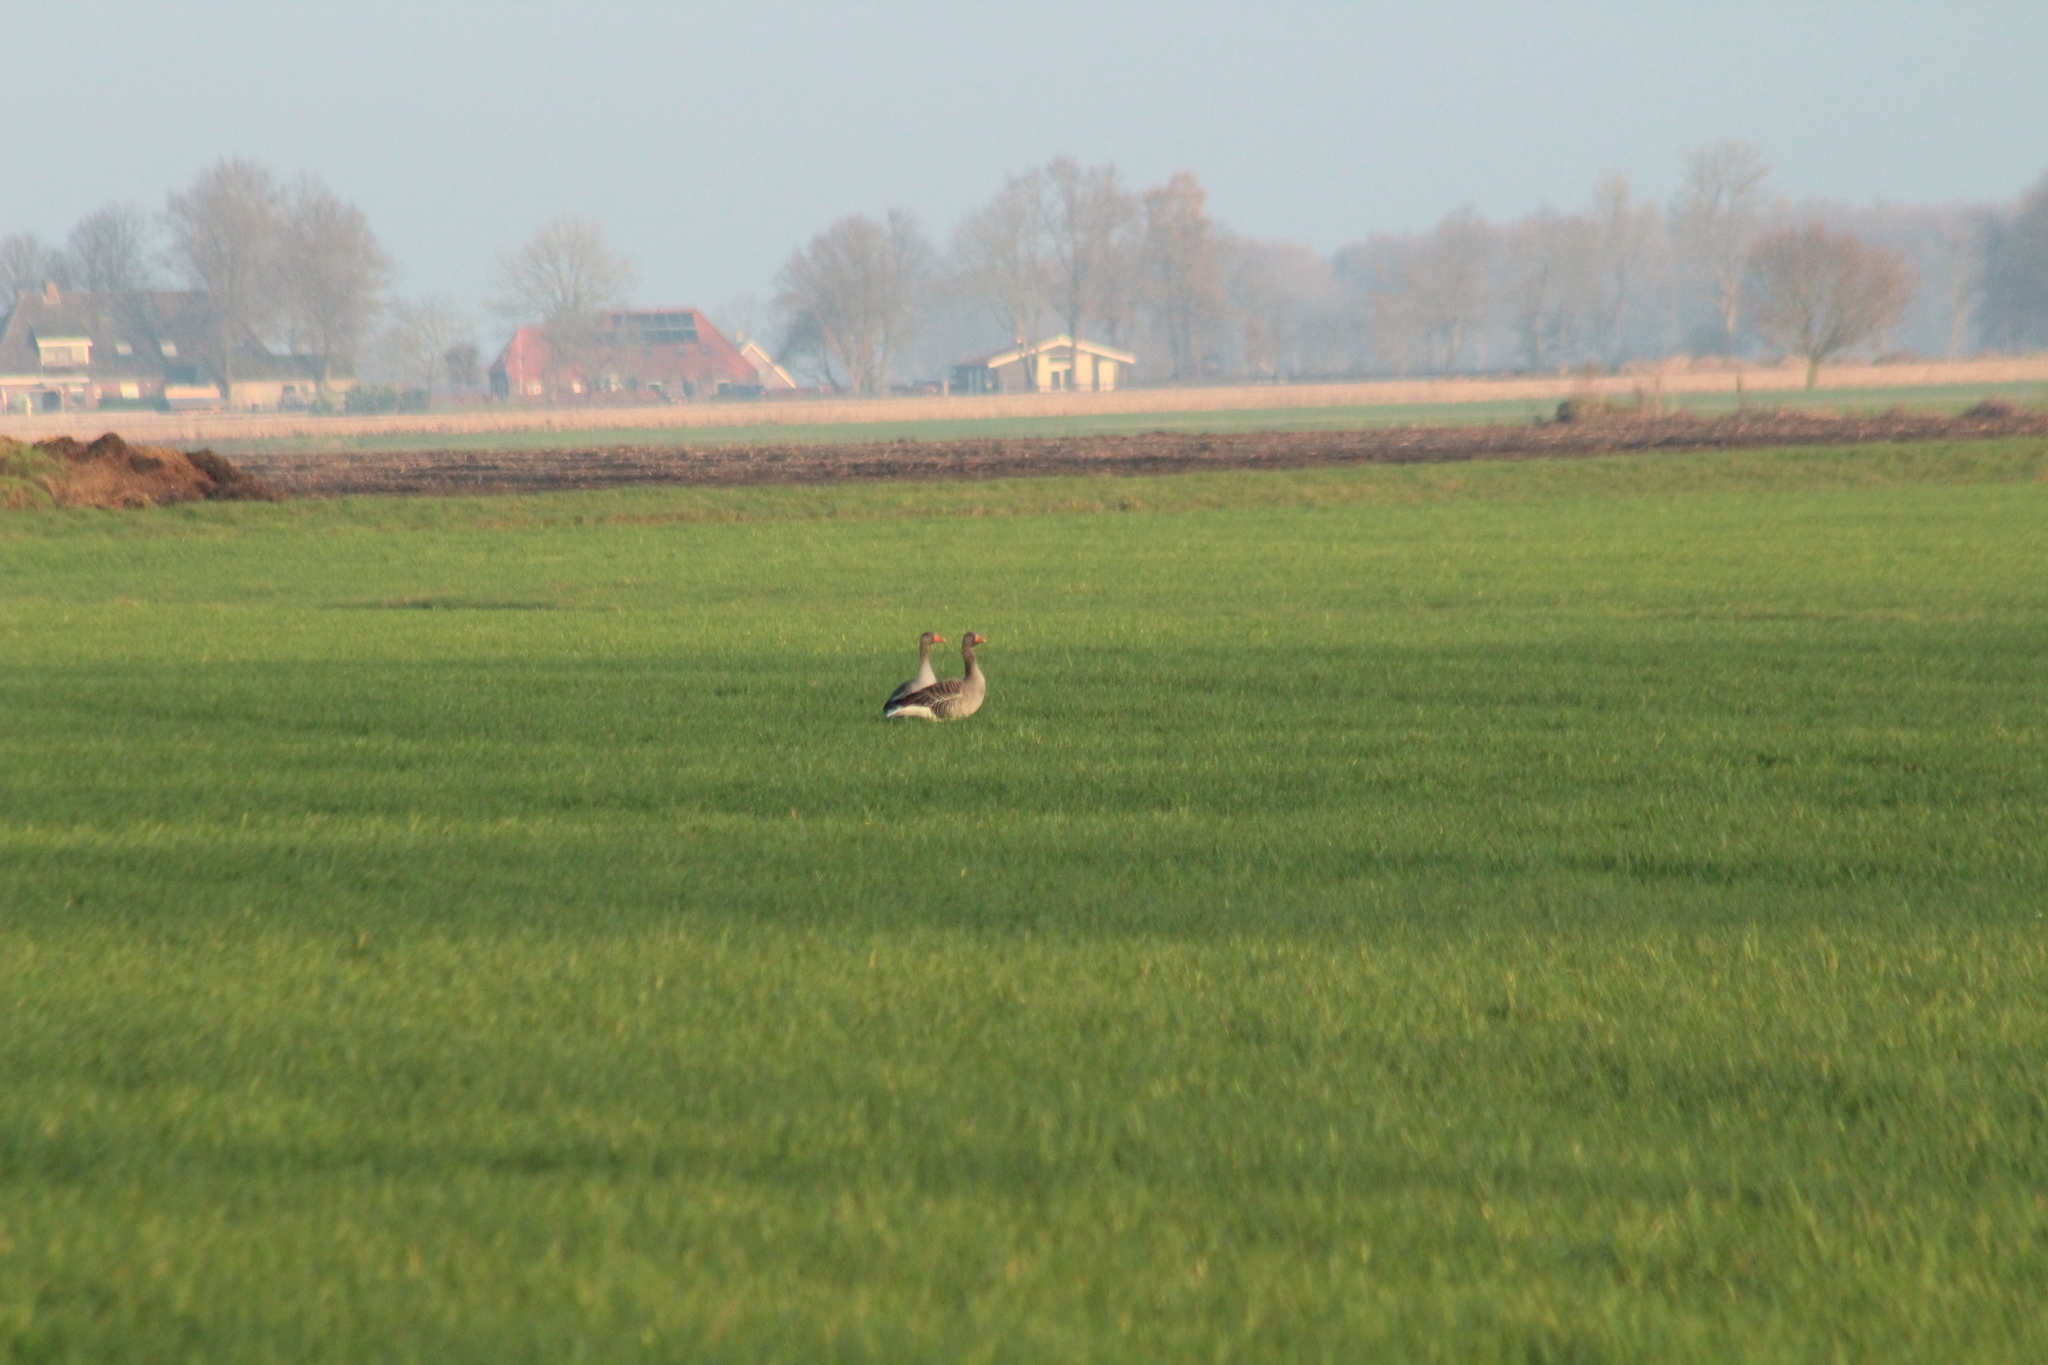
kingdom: Animalia
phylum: Chordata
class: Aves
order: Anseriformes
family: Anatidae
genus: Anser
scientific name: Anser anser
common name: Greylag goose
